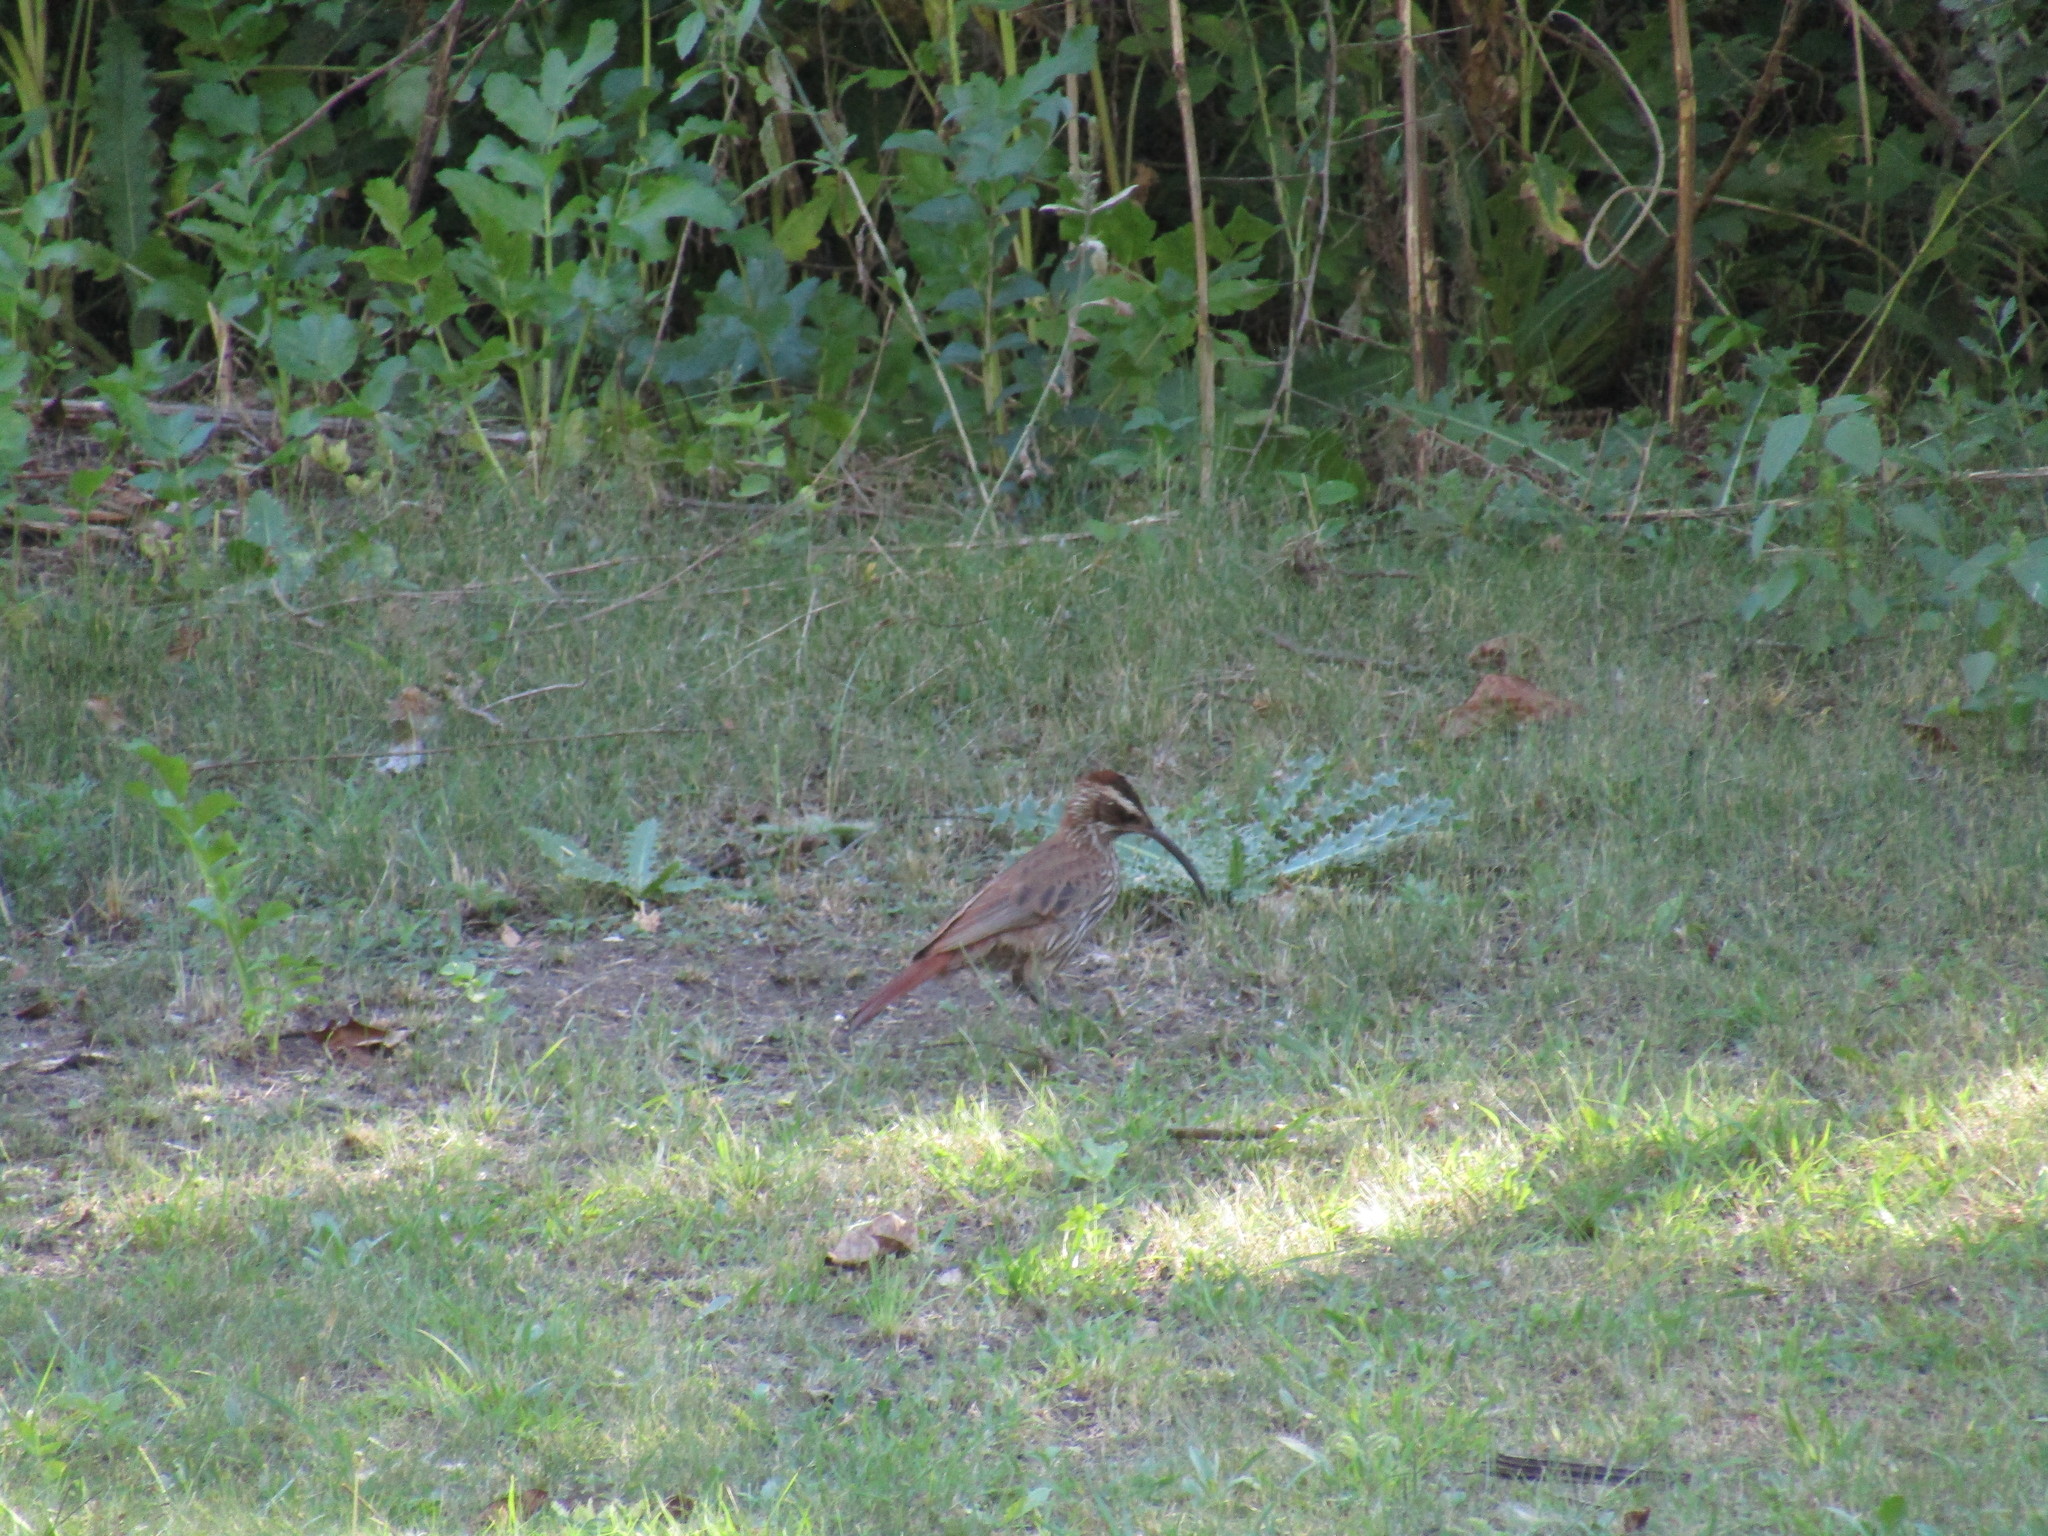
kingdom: Animalia
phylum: Chordata
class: Aves
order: Passeriformes
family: Furnariidae
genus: Drymornis
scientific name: Drymornis bridgesii
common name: Scimitar-billed woodcreeper
